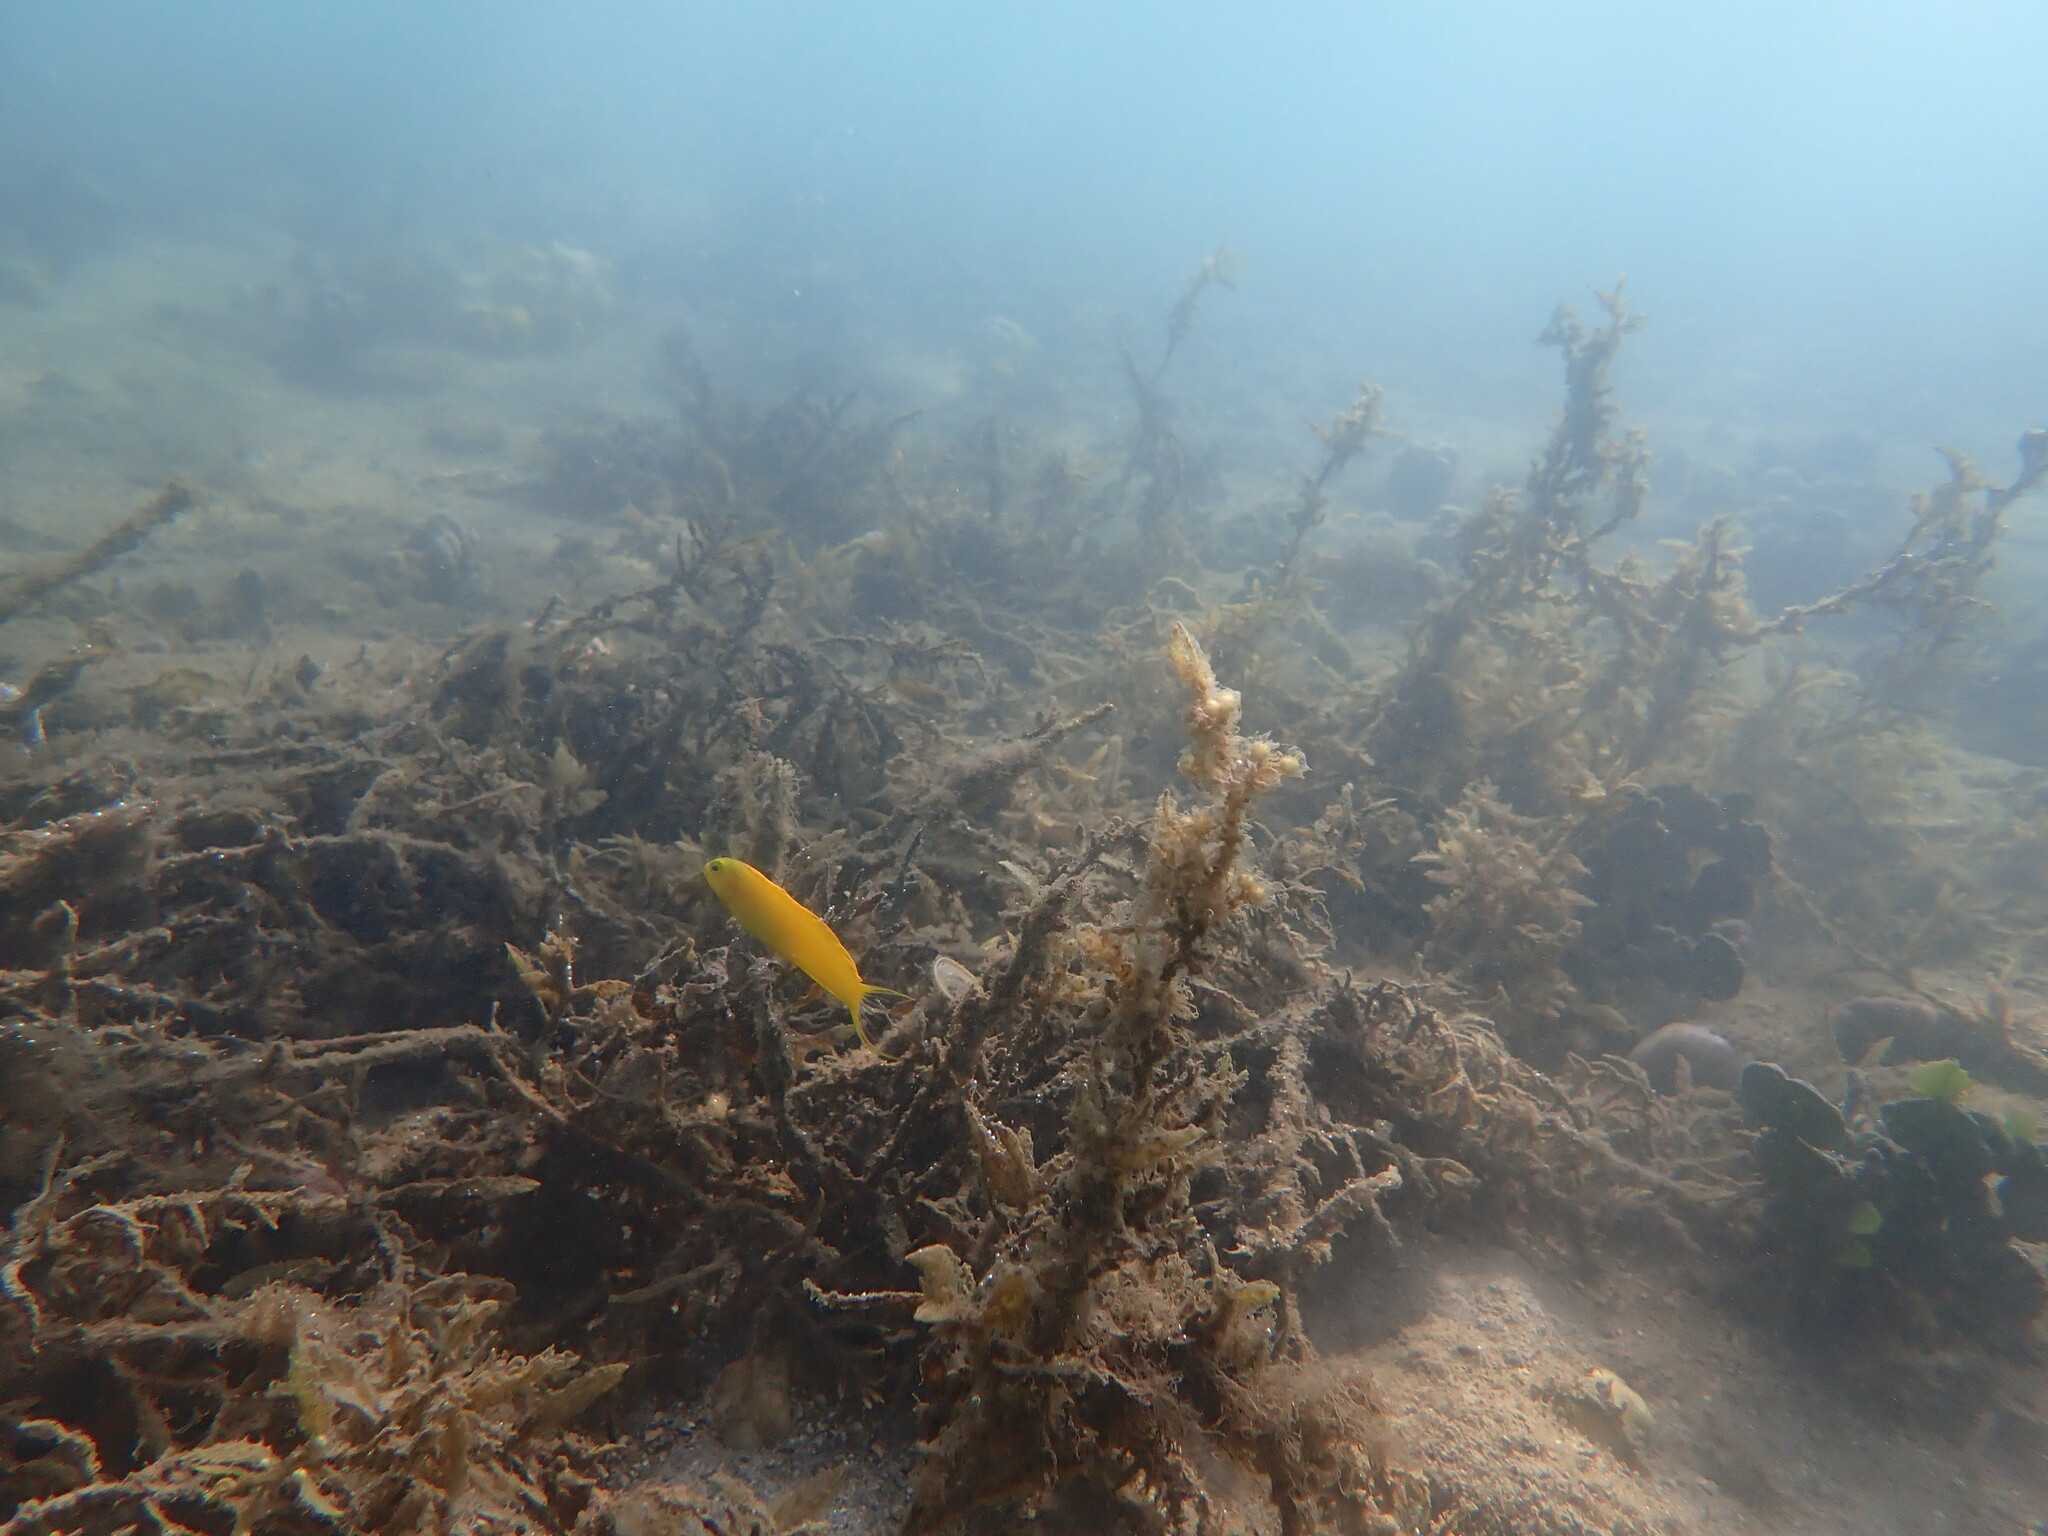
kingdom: Animalia
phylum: Chordata
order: Perciformes
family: Blenniidae
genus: Meiacanthus
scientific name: Meiacanthus oualanensis
